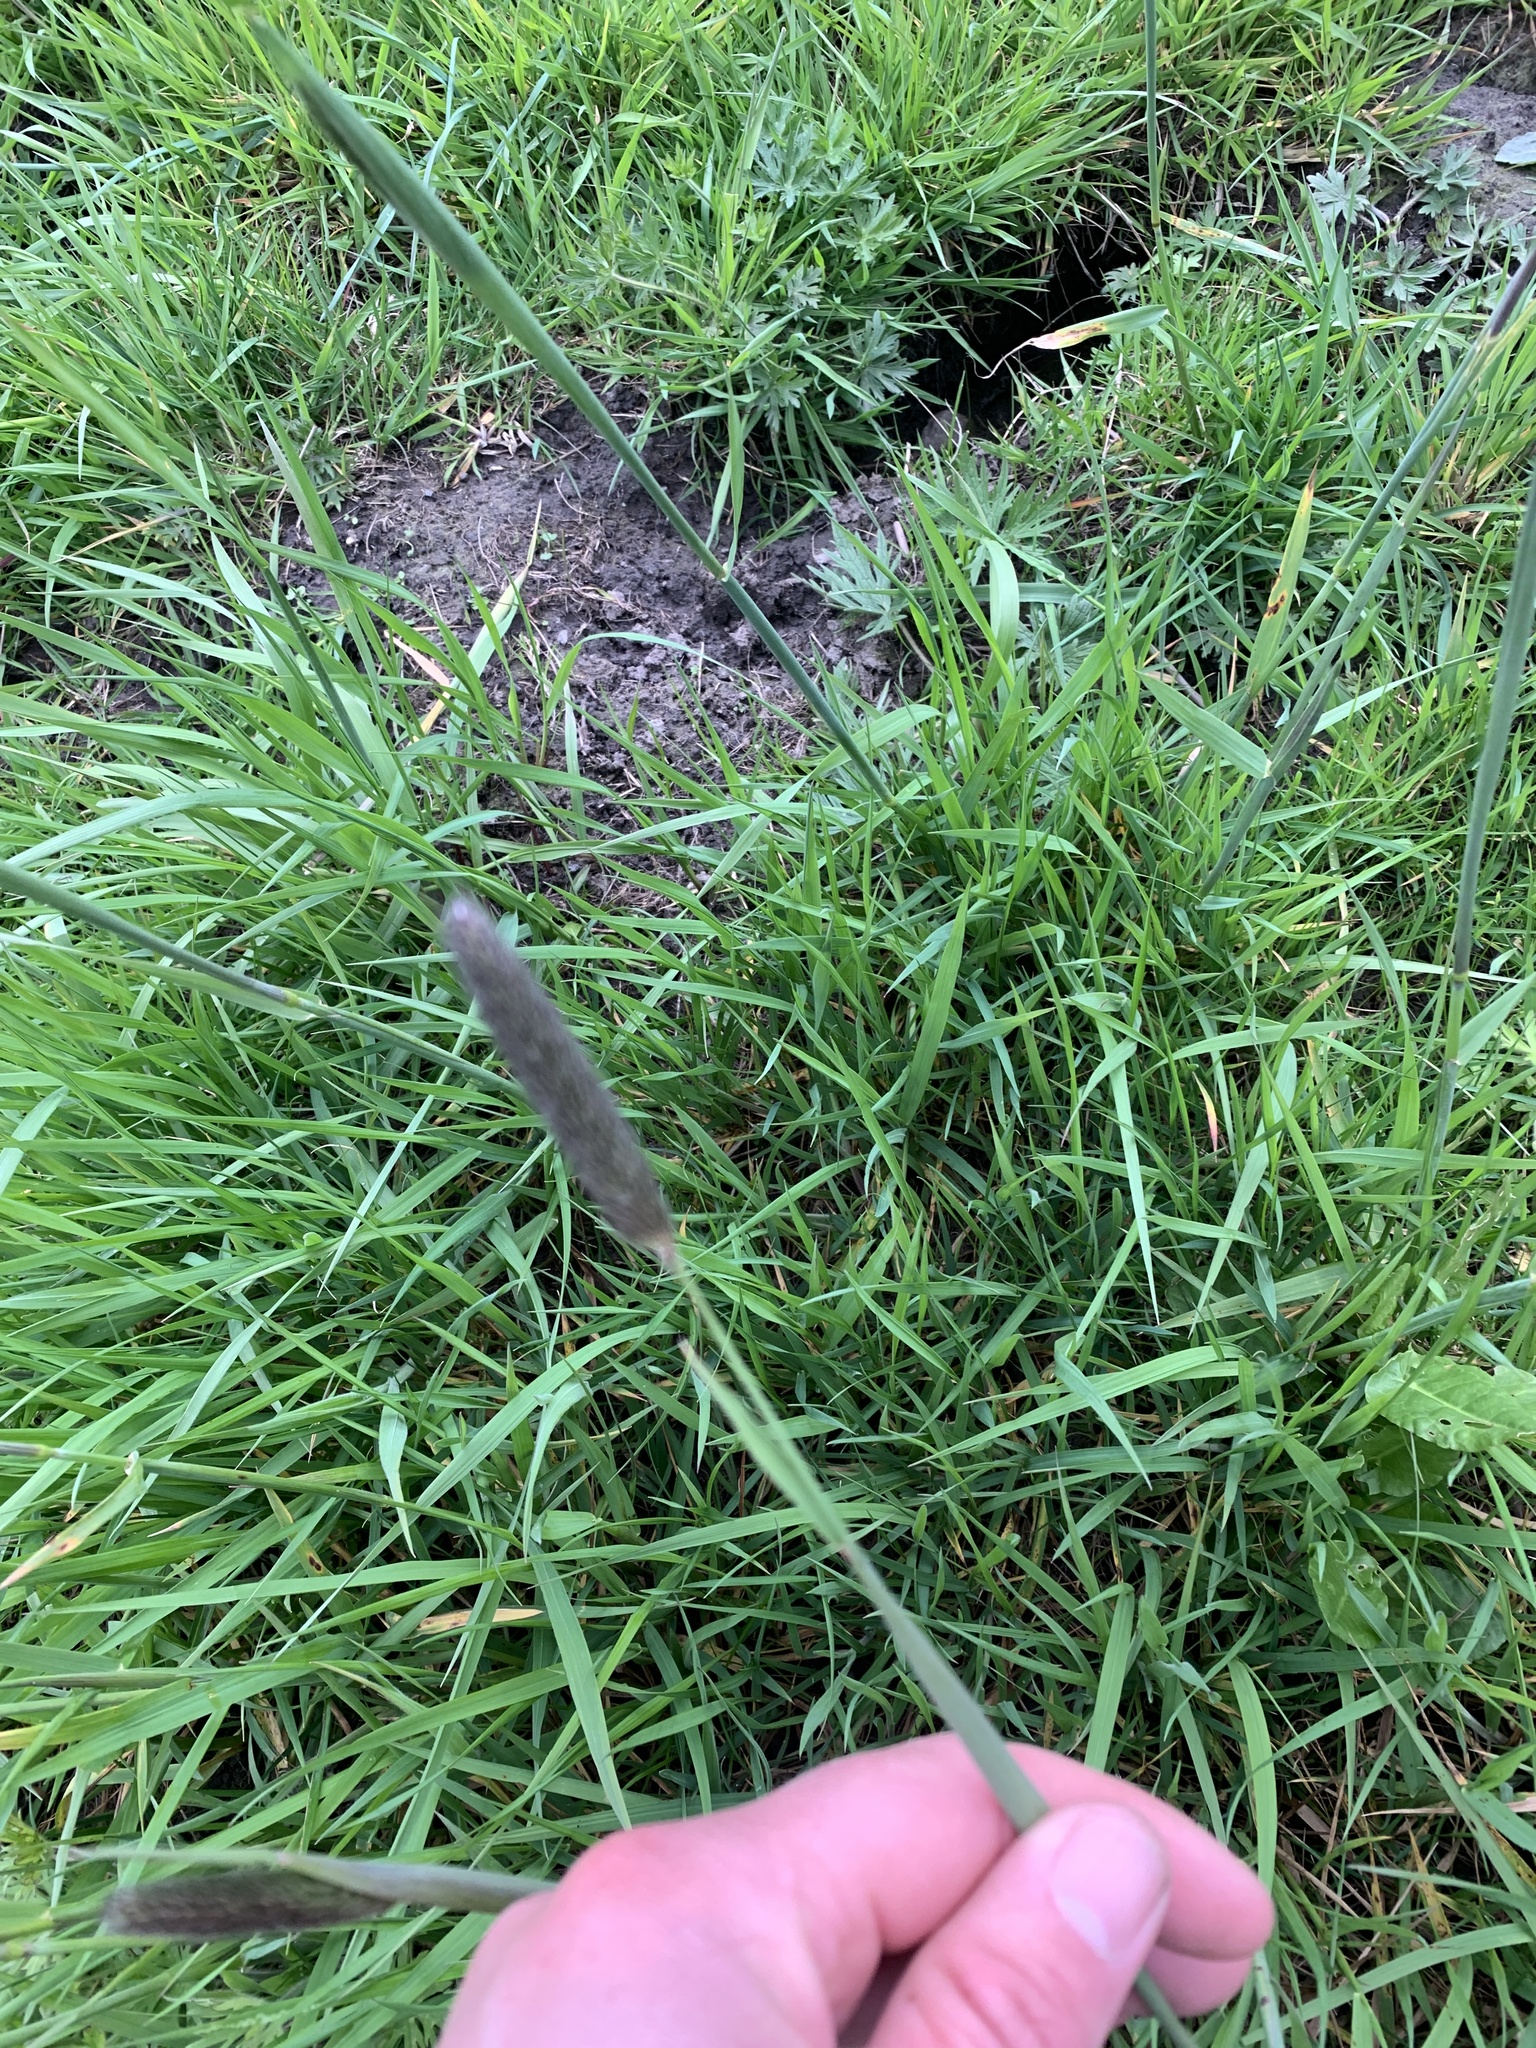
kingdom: Plantae
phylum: Tracheophyta
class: Liliopsida
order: Poales
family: Poaceae
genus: Alopecurus
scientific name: Alopecurus pratensis
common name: Meadow foxtail
